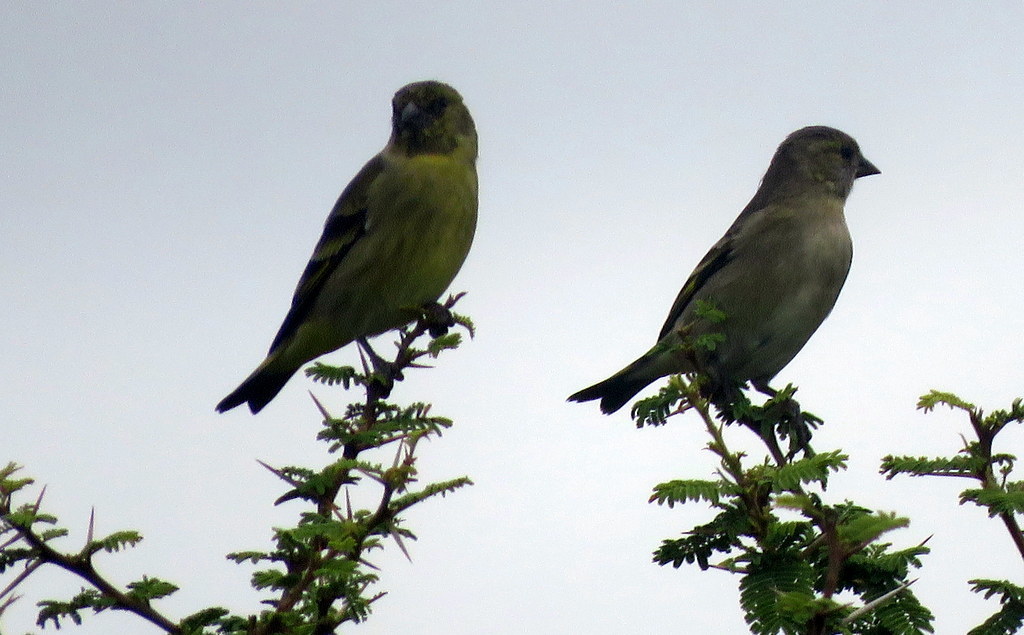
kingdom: Animalia
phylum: Chordata
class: Aves
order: Passeriformes
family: Fringillidae
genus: Spinus
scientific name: Spinus magellanicus
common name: Hooded siskin
